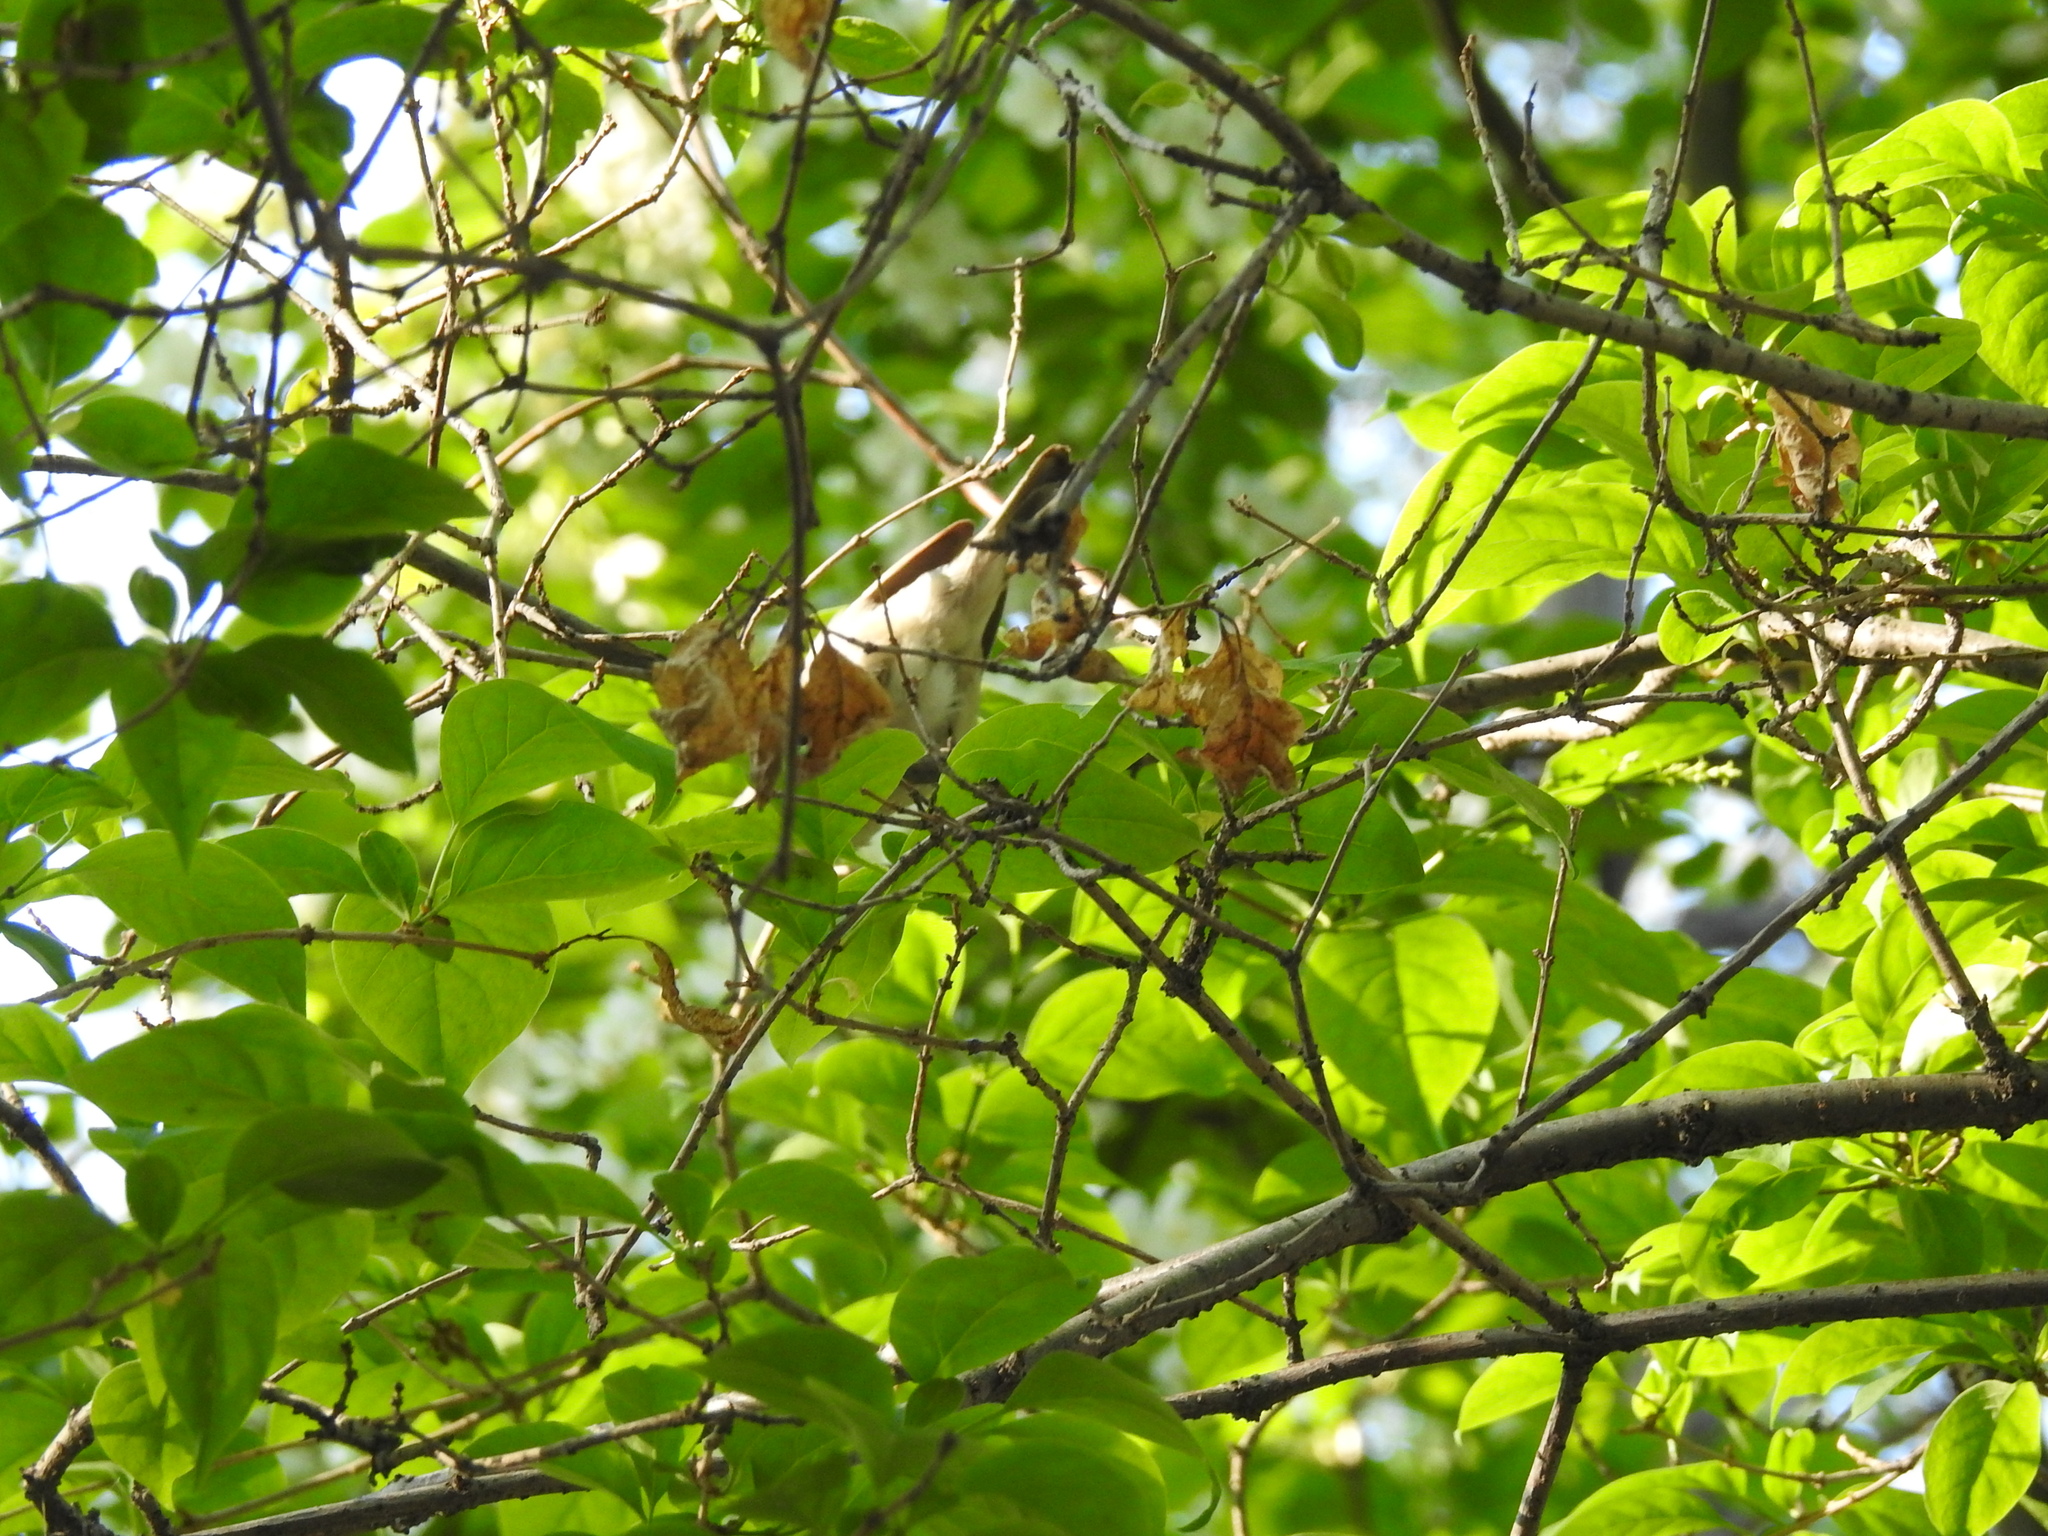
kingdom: Animalia
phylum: Chordata
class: Aves
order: Passeriformes
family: Sylviidae
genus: Sylvia
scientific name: Sylvia curruca
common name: Lesser whitethroat
